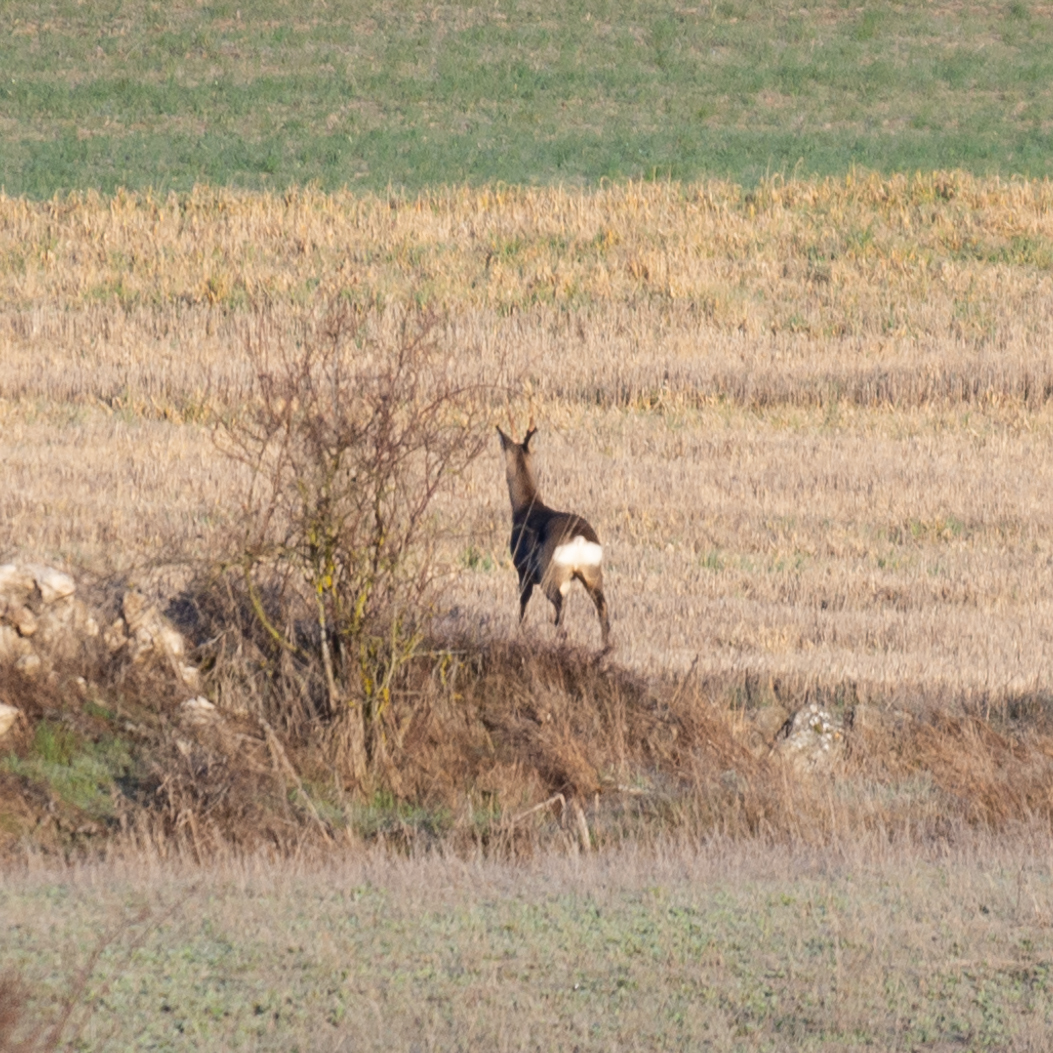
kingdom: Animalia
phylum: Chordata
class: Mammalia
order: Artiodactyla
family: Cervidae
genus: Capreolus
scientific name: Capreolus capreolus
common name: Western roe deer
